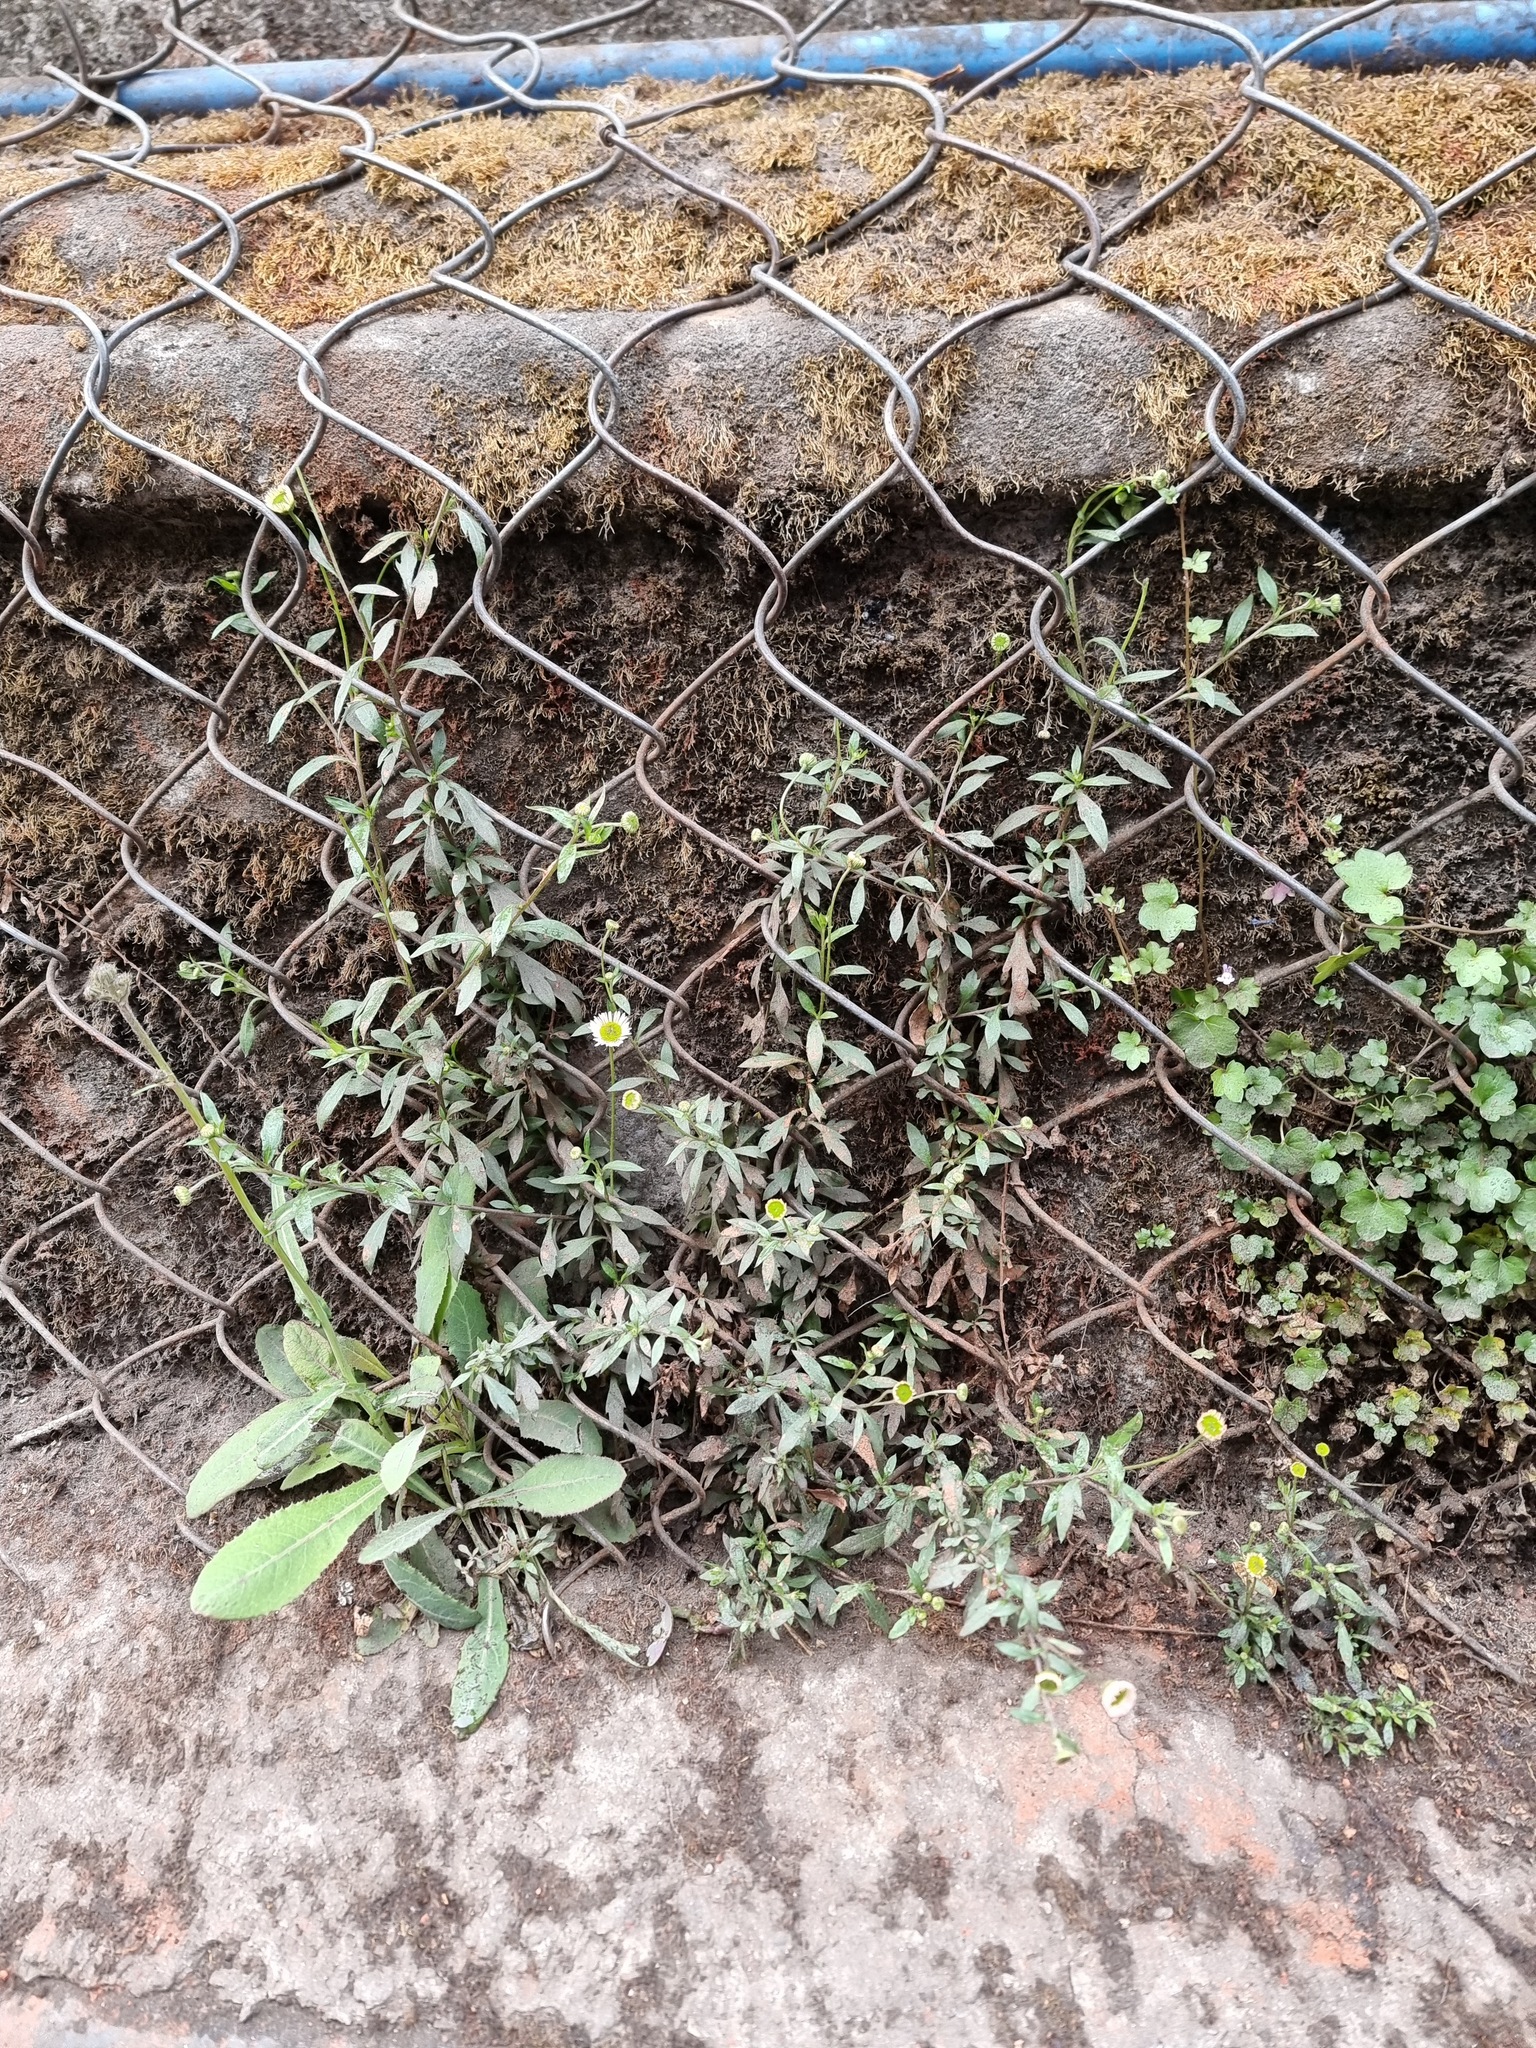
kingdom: Plantae
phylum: Tracheophyta
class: Magnoliopsida
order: Asterales
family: Asteraceae
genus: Erigeron
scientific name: Erigeron karvinskianus
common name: Mexican fleabane
